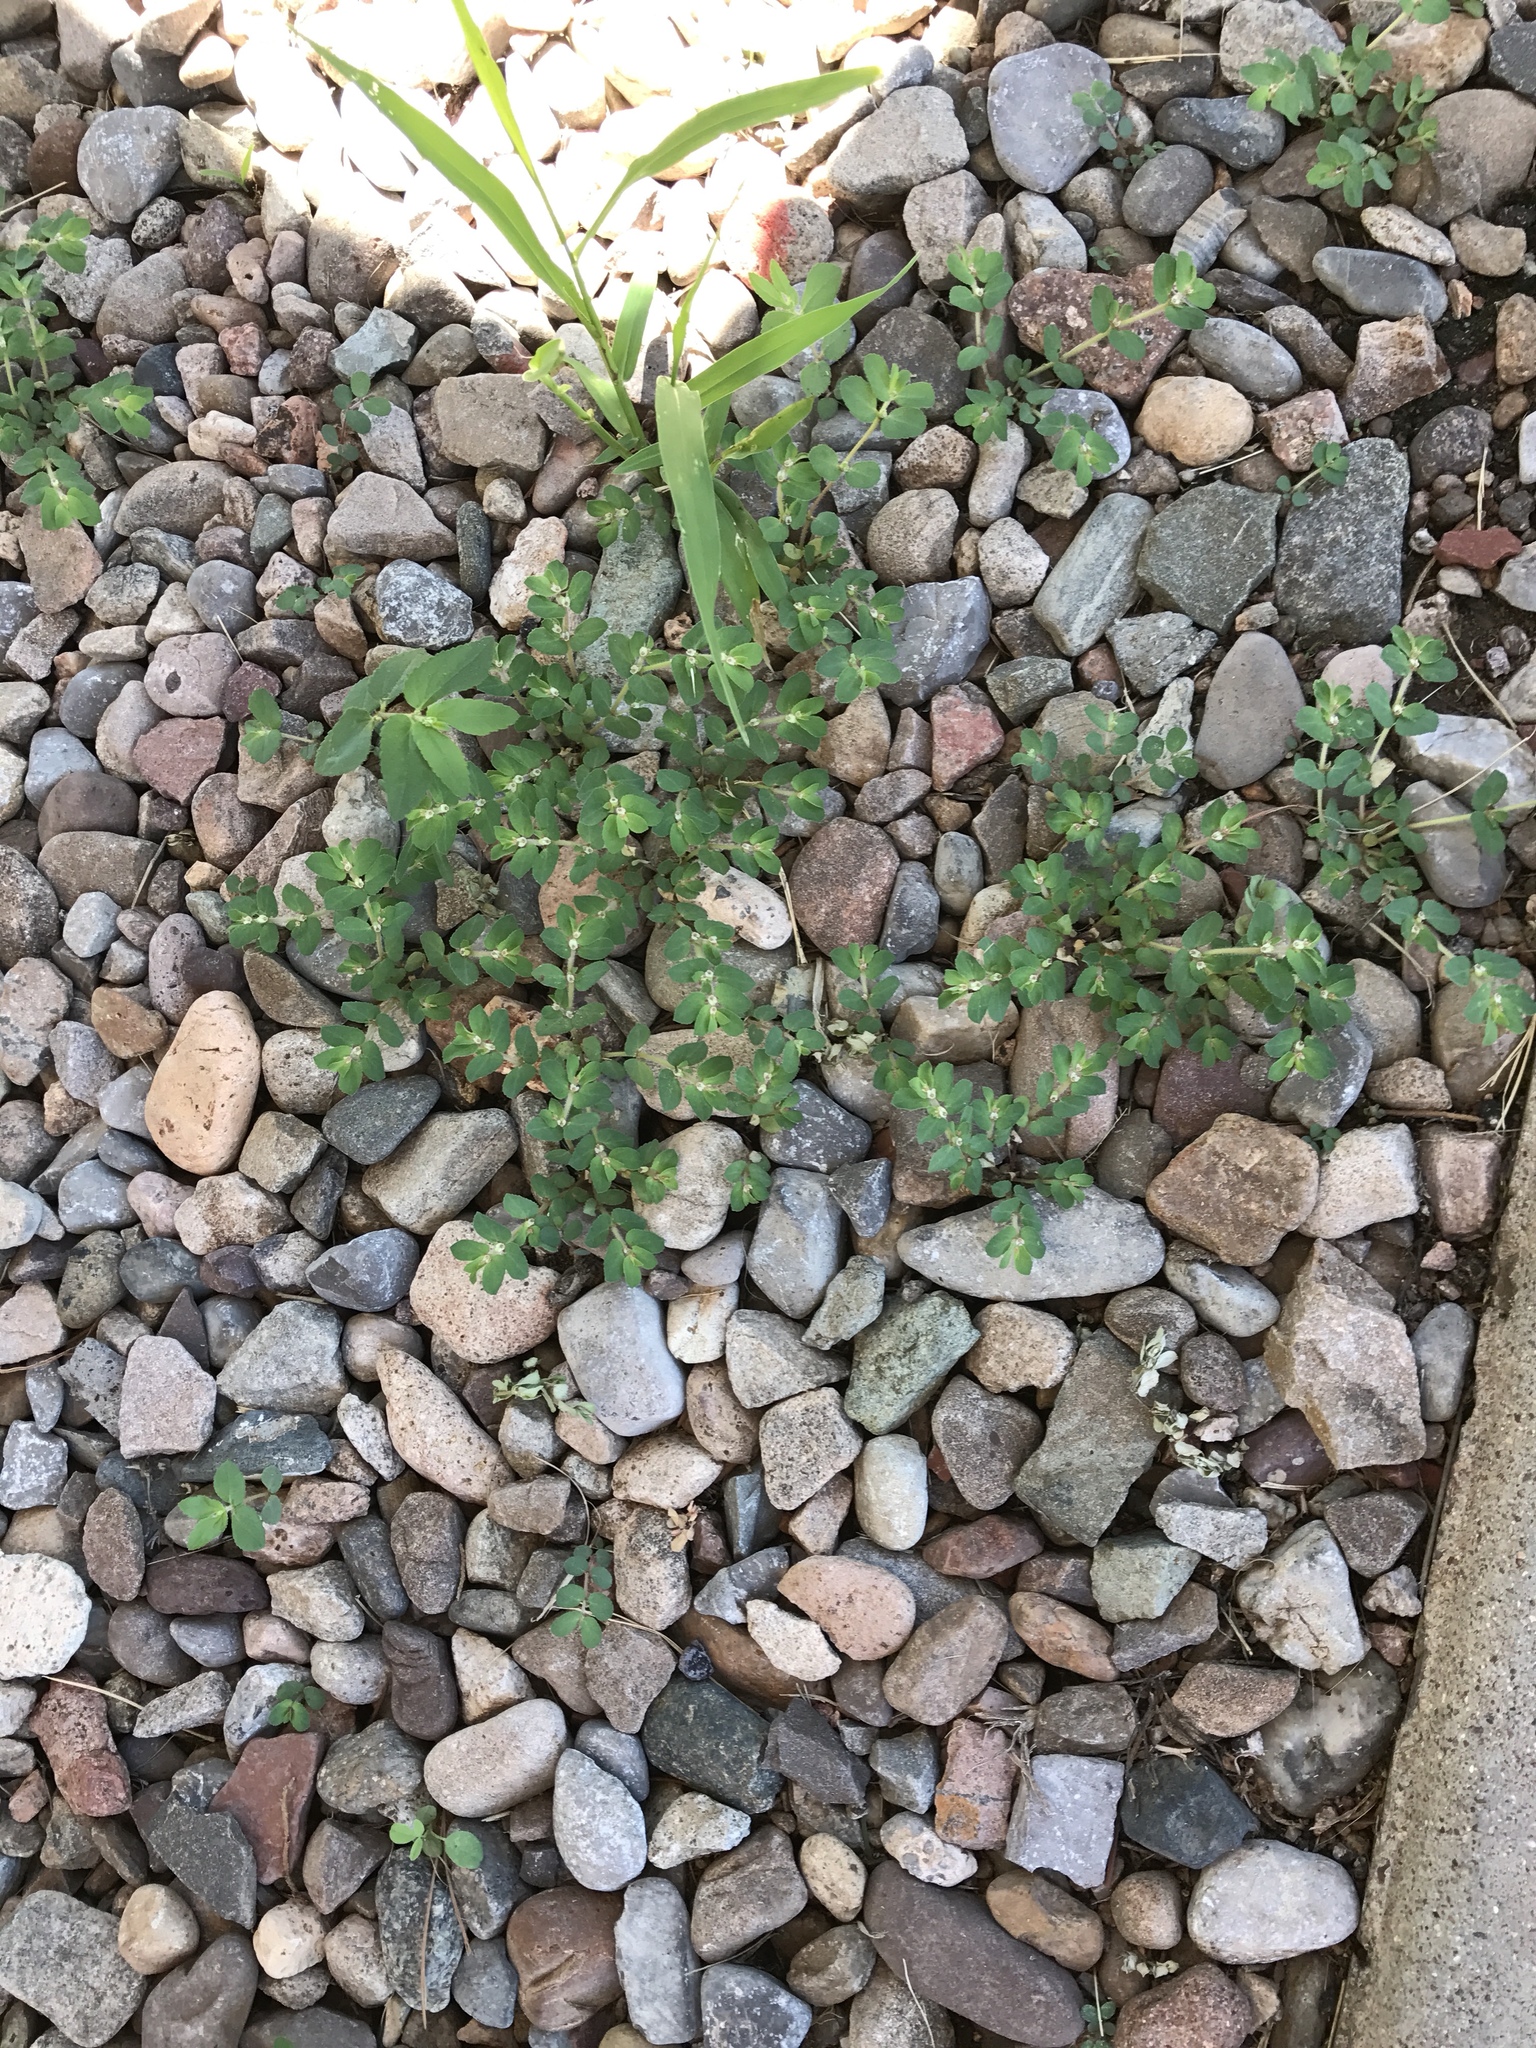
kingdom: Plantae
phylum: Tracheophyta
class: Magnoliopsida
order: Malpighiales
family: Euphorbiaceae
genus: Euphorbia
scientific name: Euphorbia indivisa
